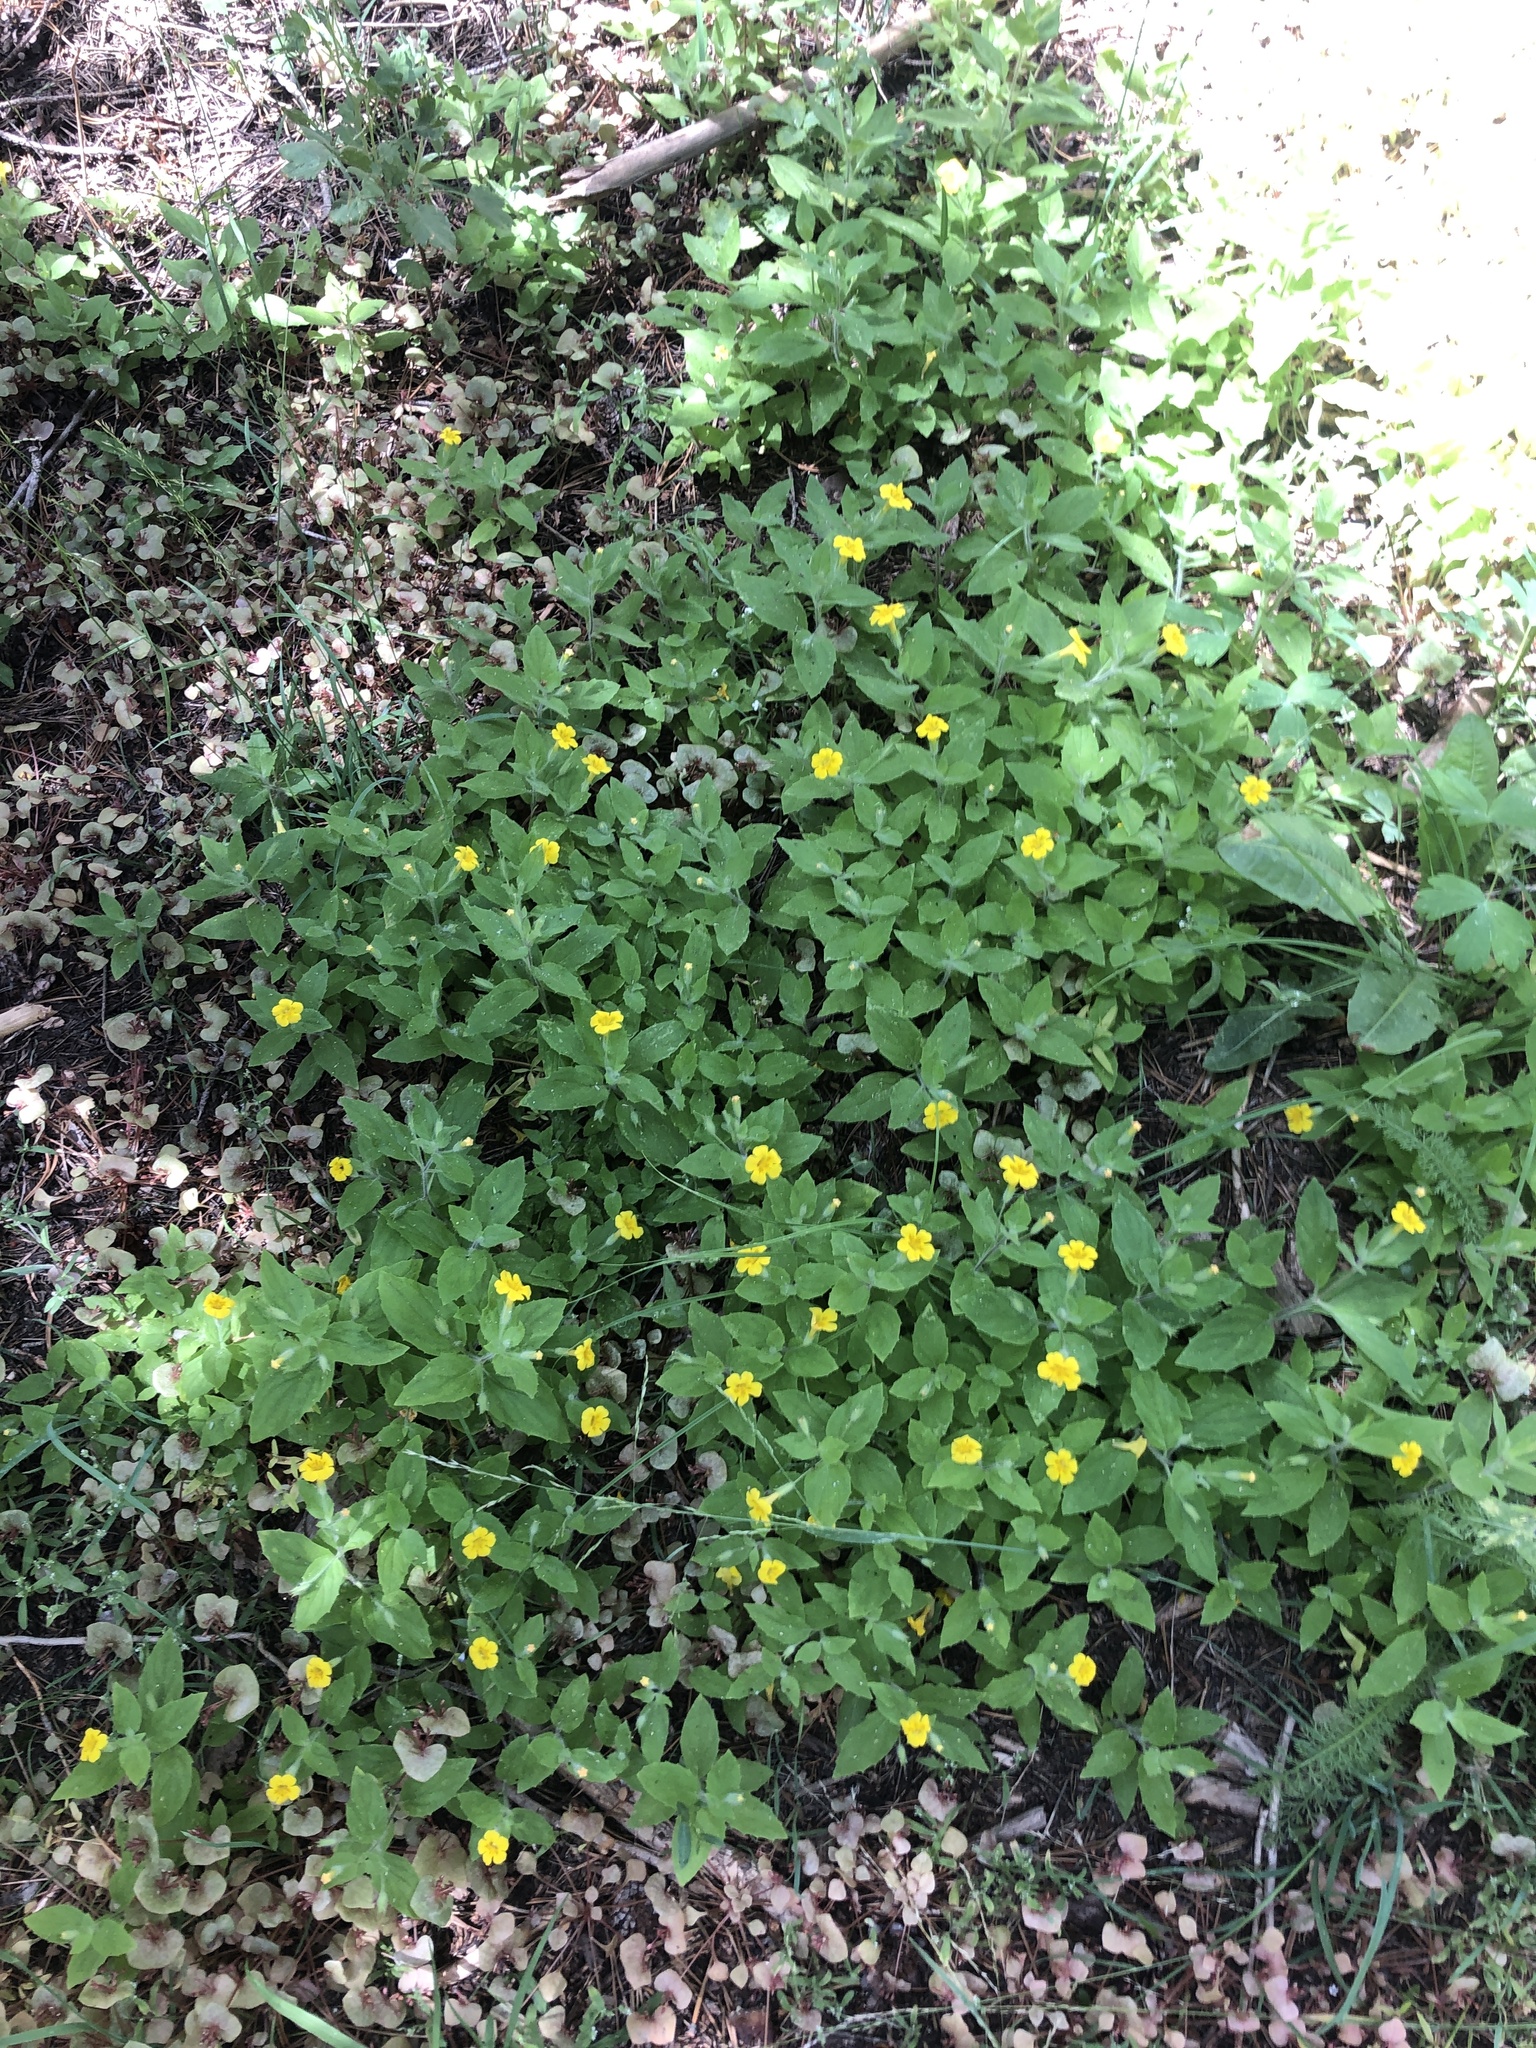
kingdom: Plantae
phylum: Tracheophyta
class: Magnoliopsida
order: Lamiales
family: Phrymaceae
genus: Erythranthe
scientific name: Erythranthe moschata
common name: Muskflower
